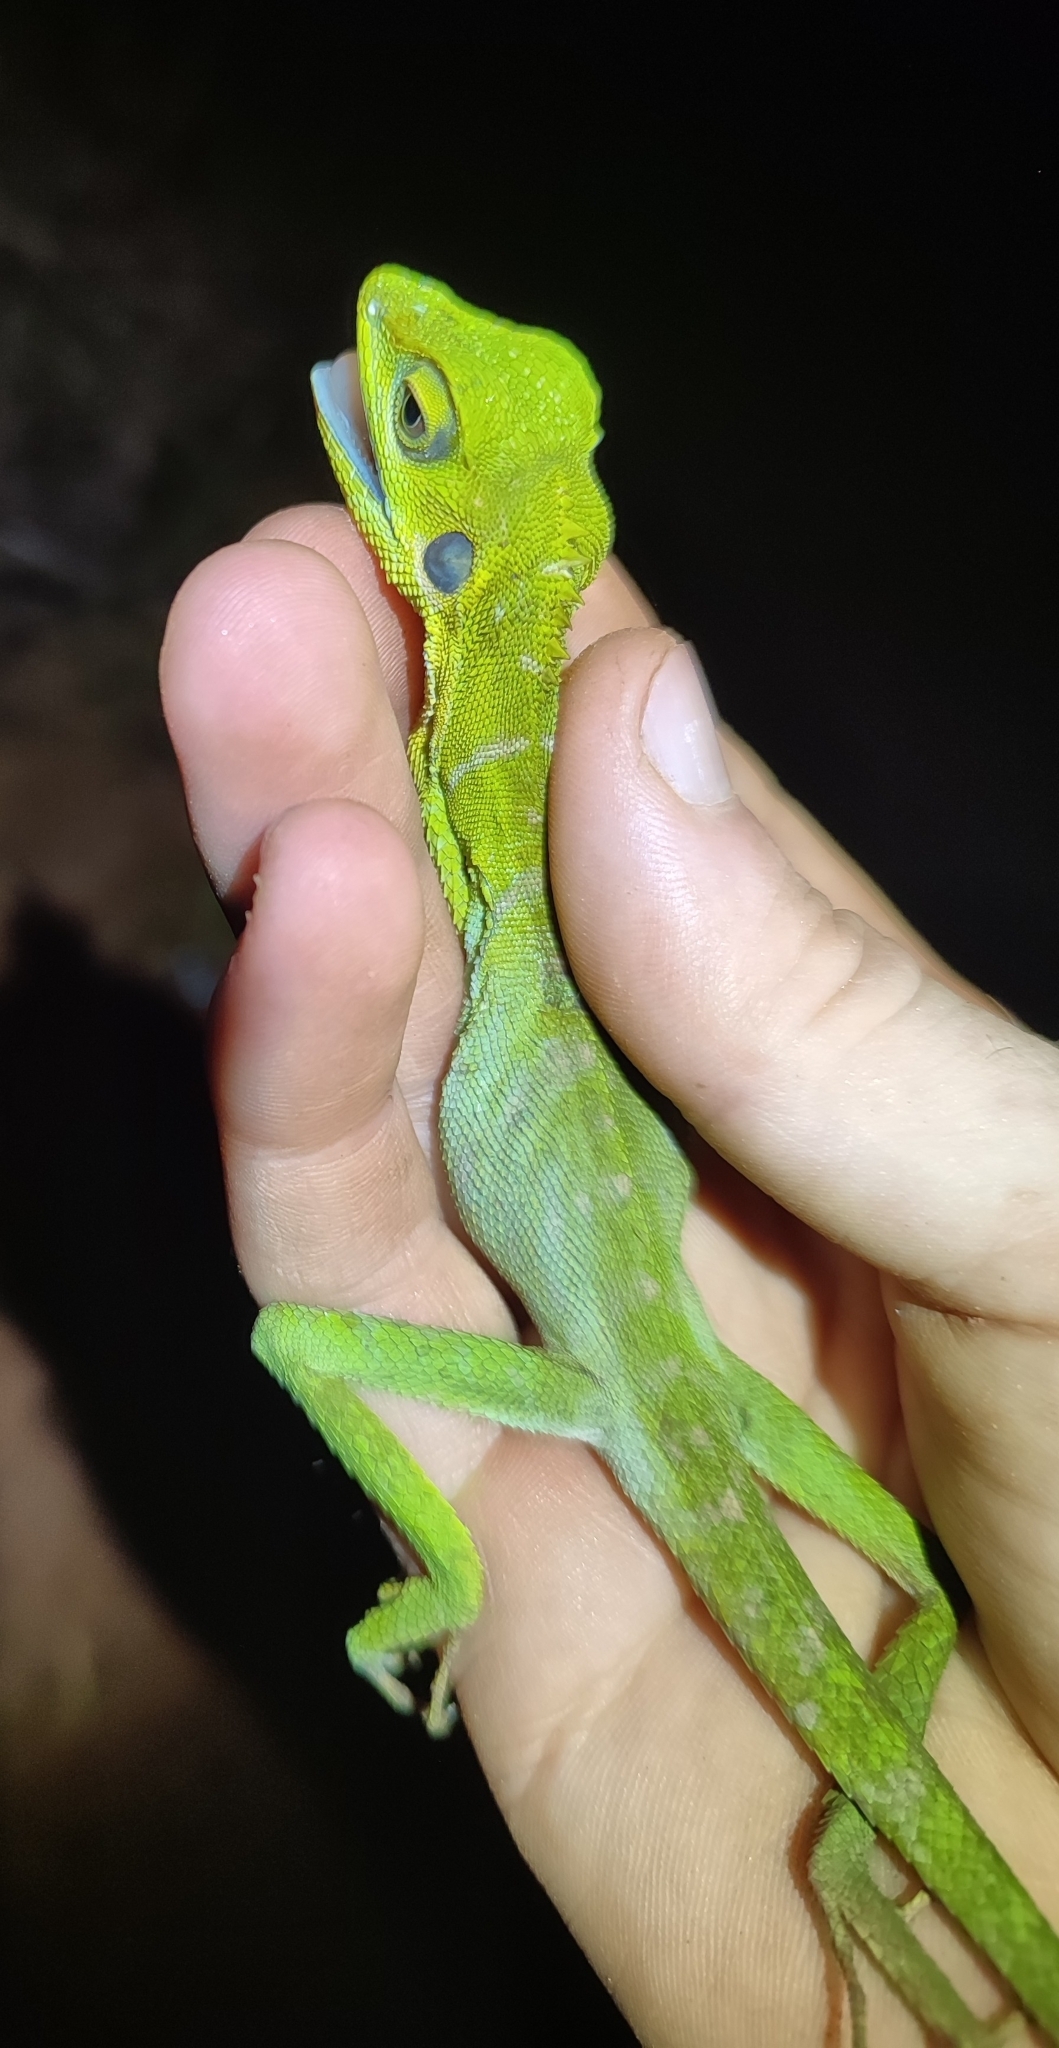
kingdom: Animalia
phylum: Chordata
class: Squamata
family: Agamidae
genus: Bronchocela
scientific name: Bronchocela cristatella
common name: Green crested lizard
